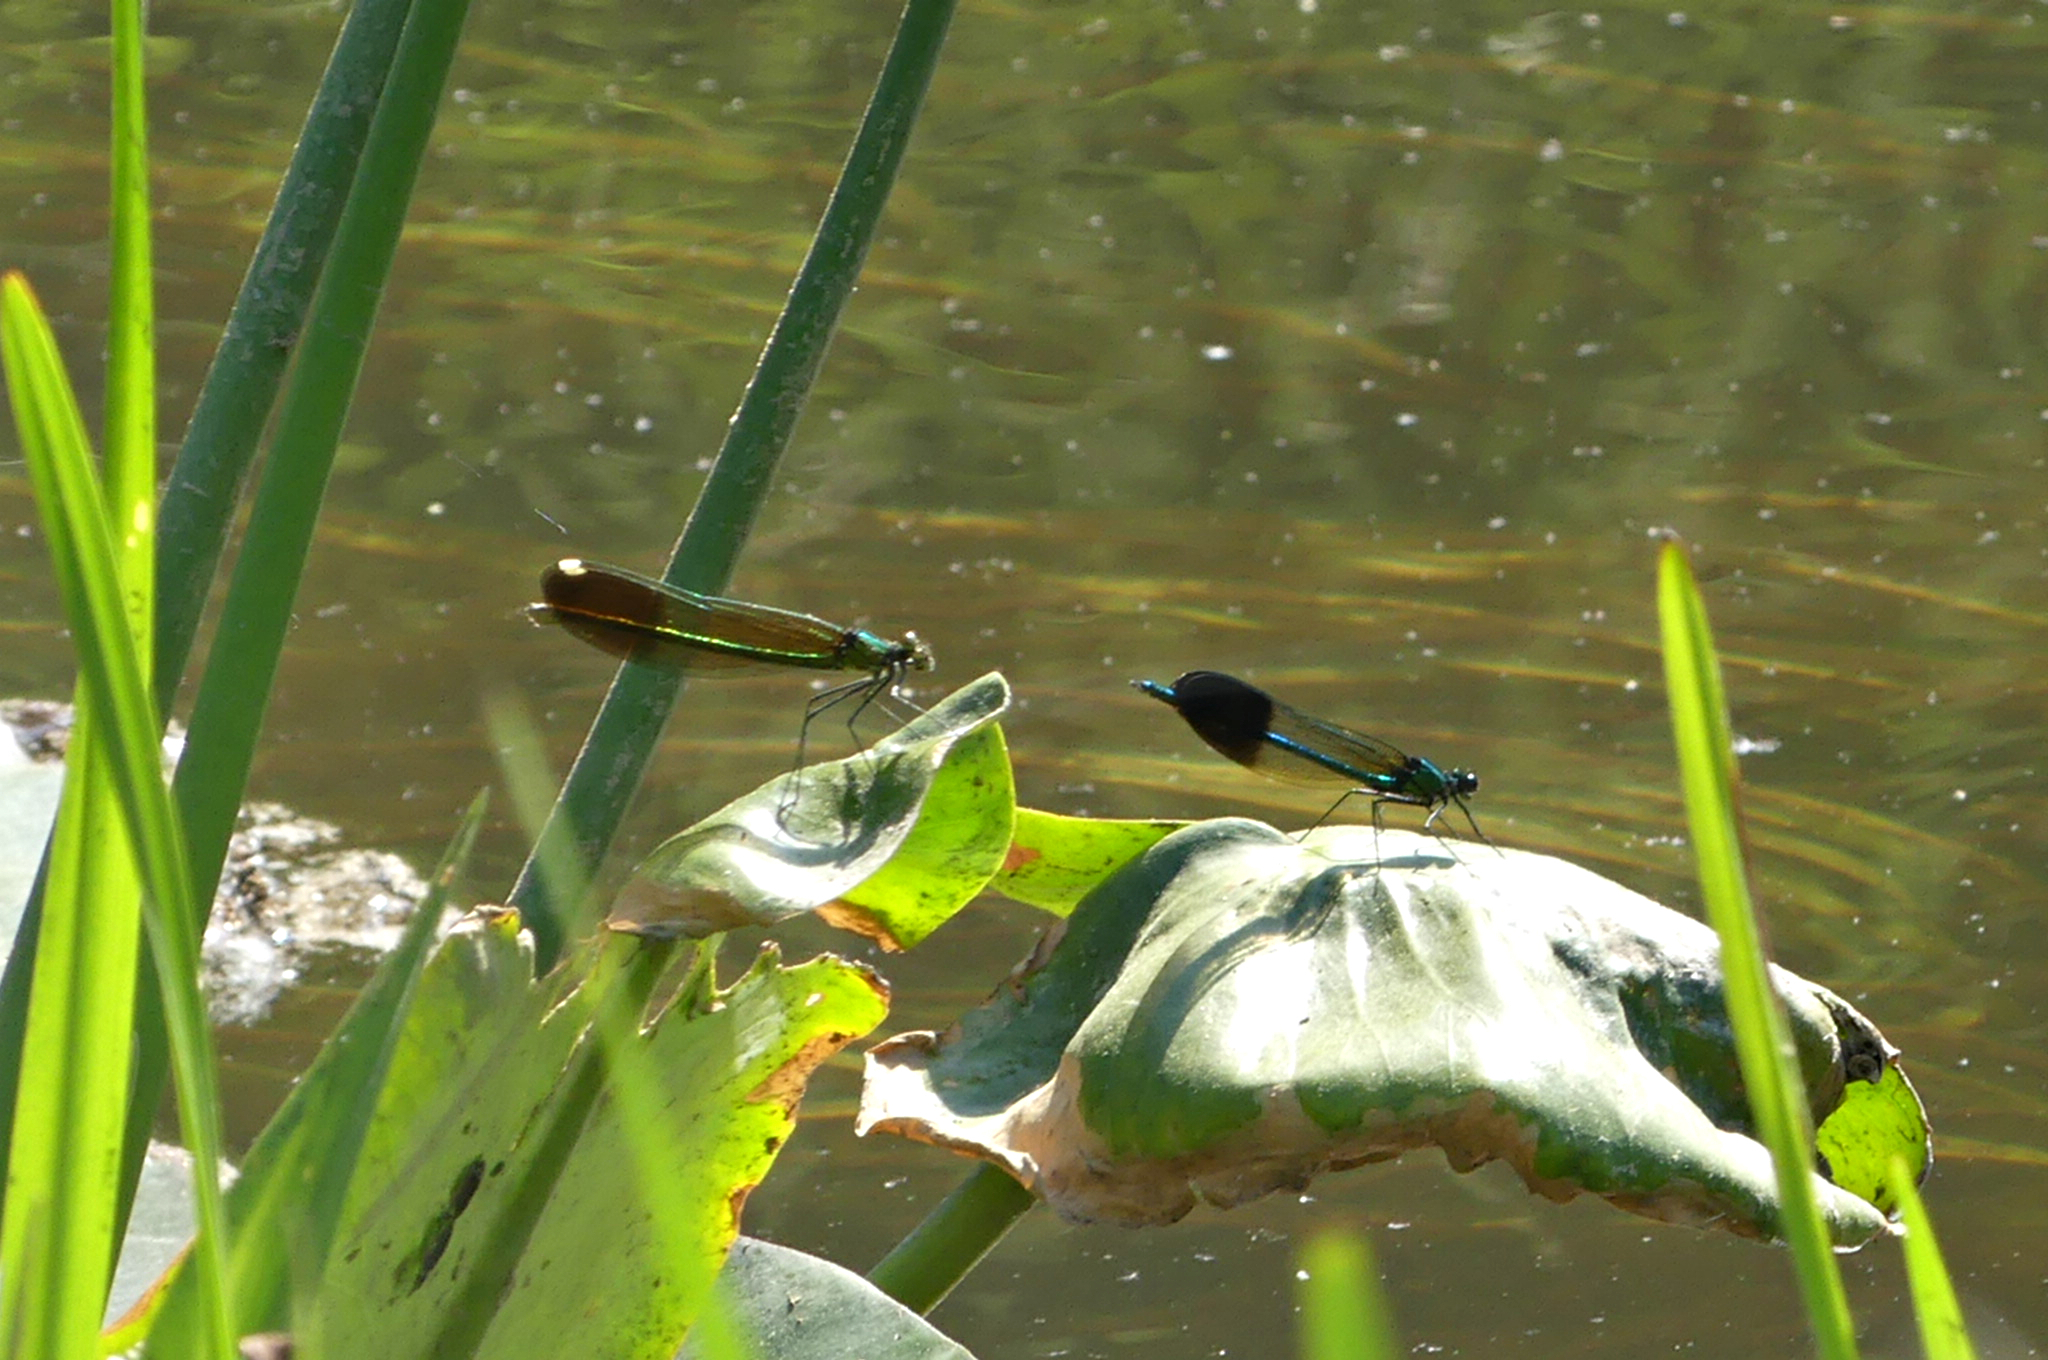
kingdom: Animalia
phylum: Arthropoda
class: Insecta
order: Odonata
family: Calopterygidae
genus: Calopteryx
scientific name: Calopteryx aequabilis
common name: River jewelwing
